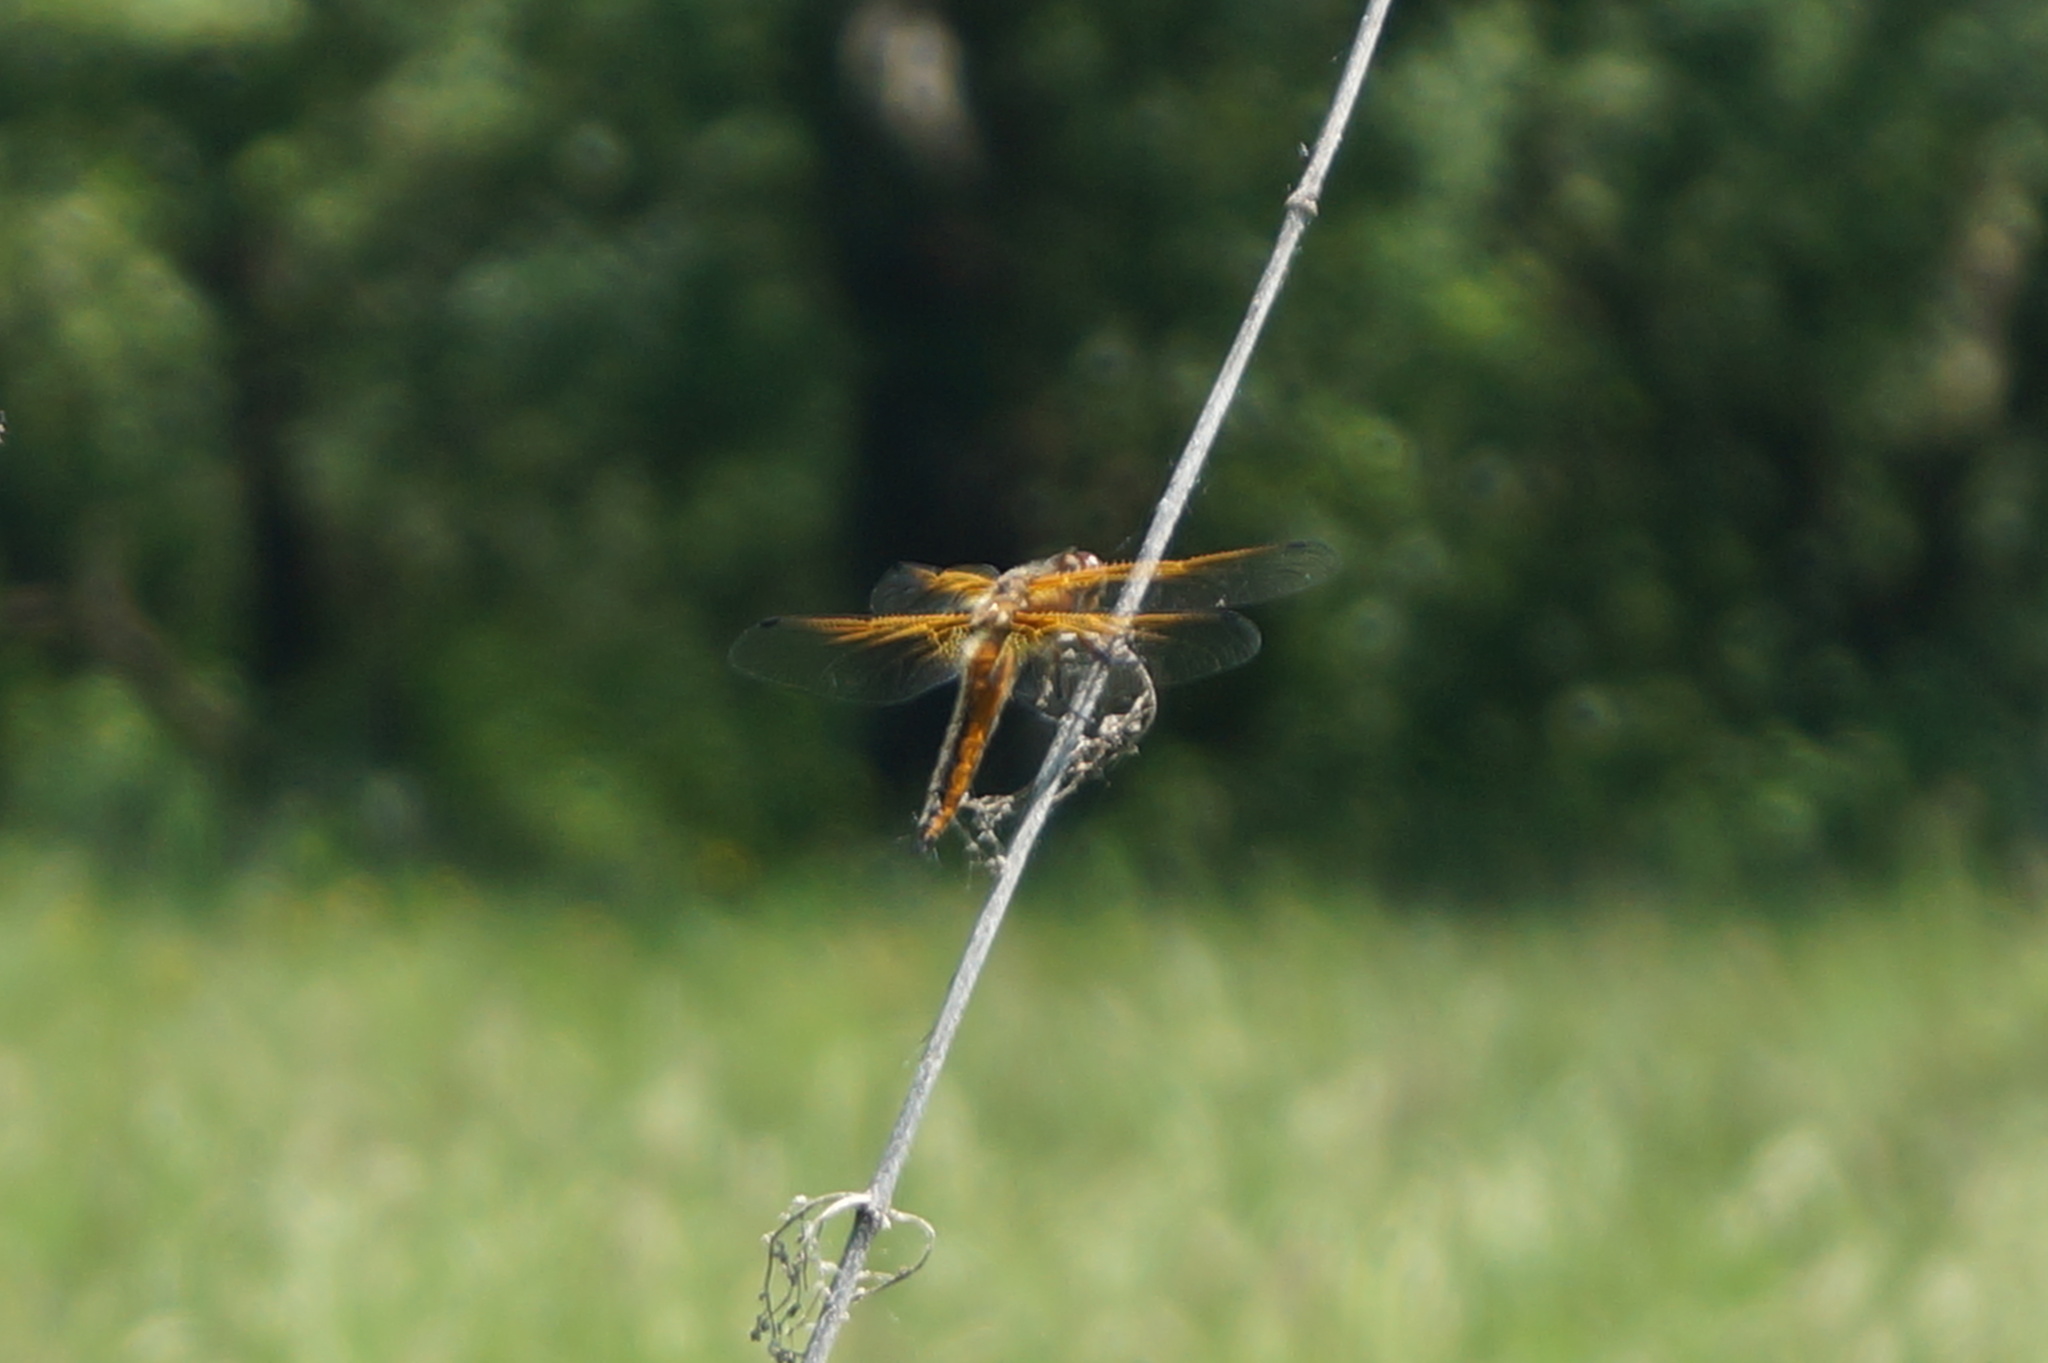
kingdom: Animalia
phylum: Arthropoda
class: Insecta
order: Odonata
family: Libellulidae
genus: Libellula
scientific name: Libellula fulva
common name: Blue chaser
